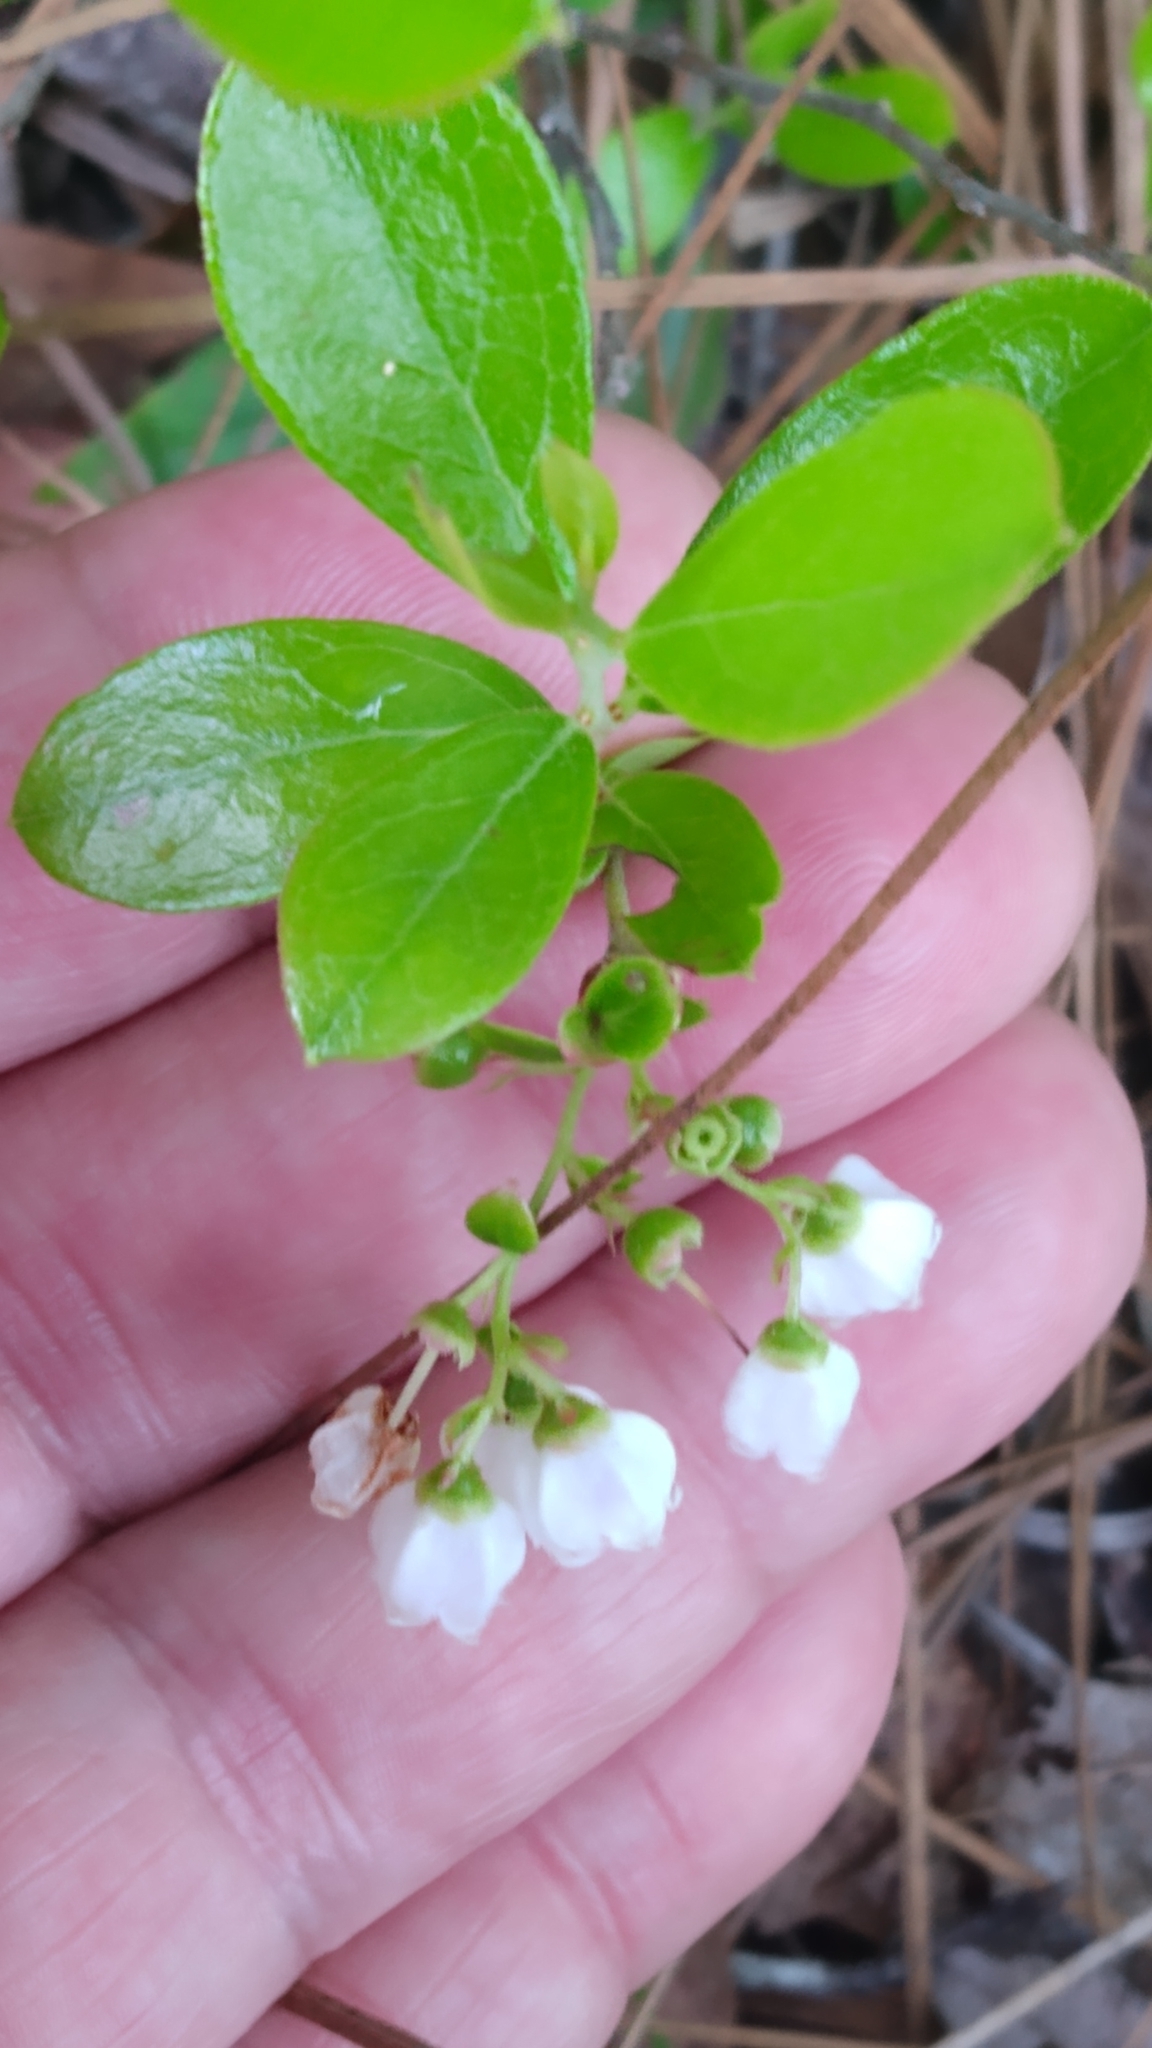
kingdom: Plantae
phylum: Tracheophyta
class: Magnoliopsida
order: Ericales
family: Ericaceae
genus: Gaylussacia
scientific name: Gaylussacia dumosa
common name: Dwarf huckleberry
